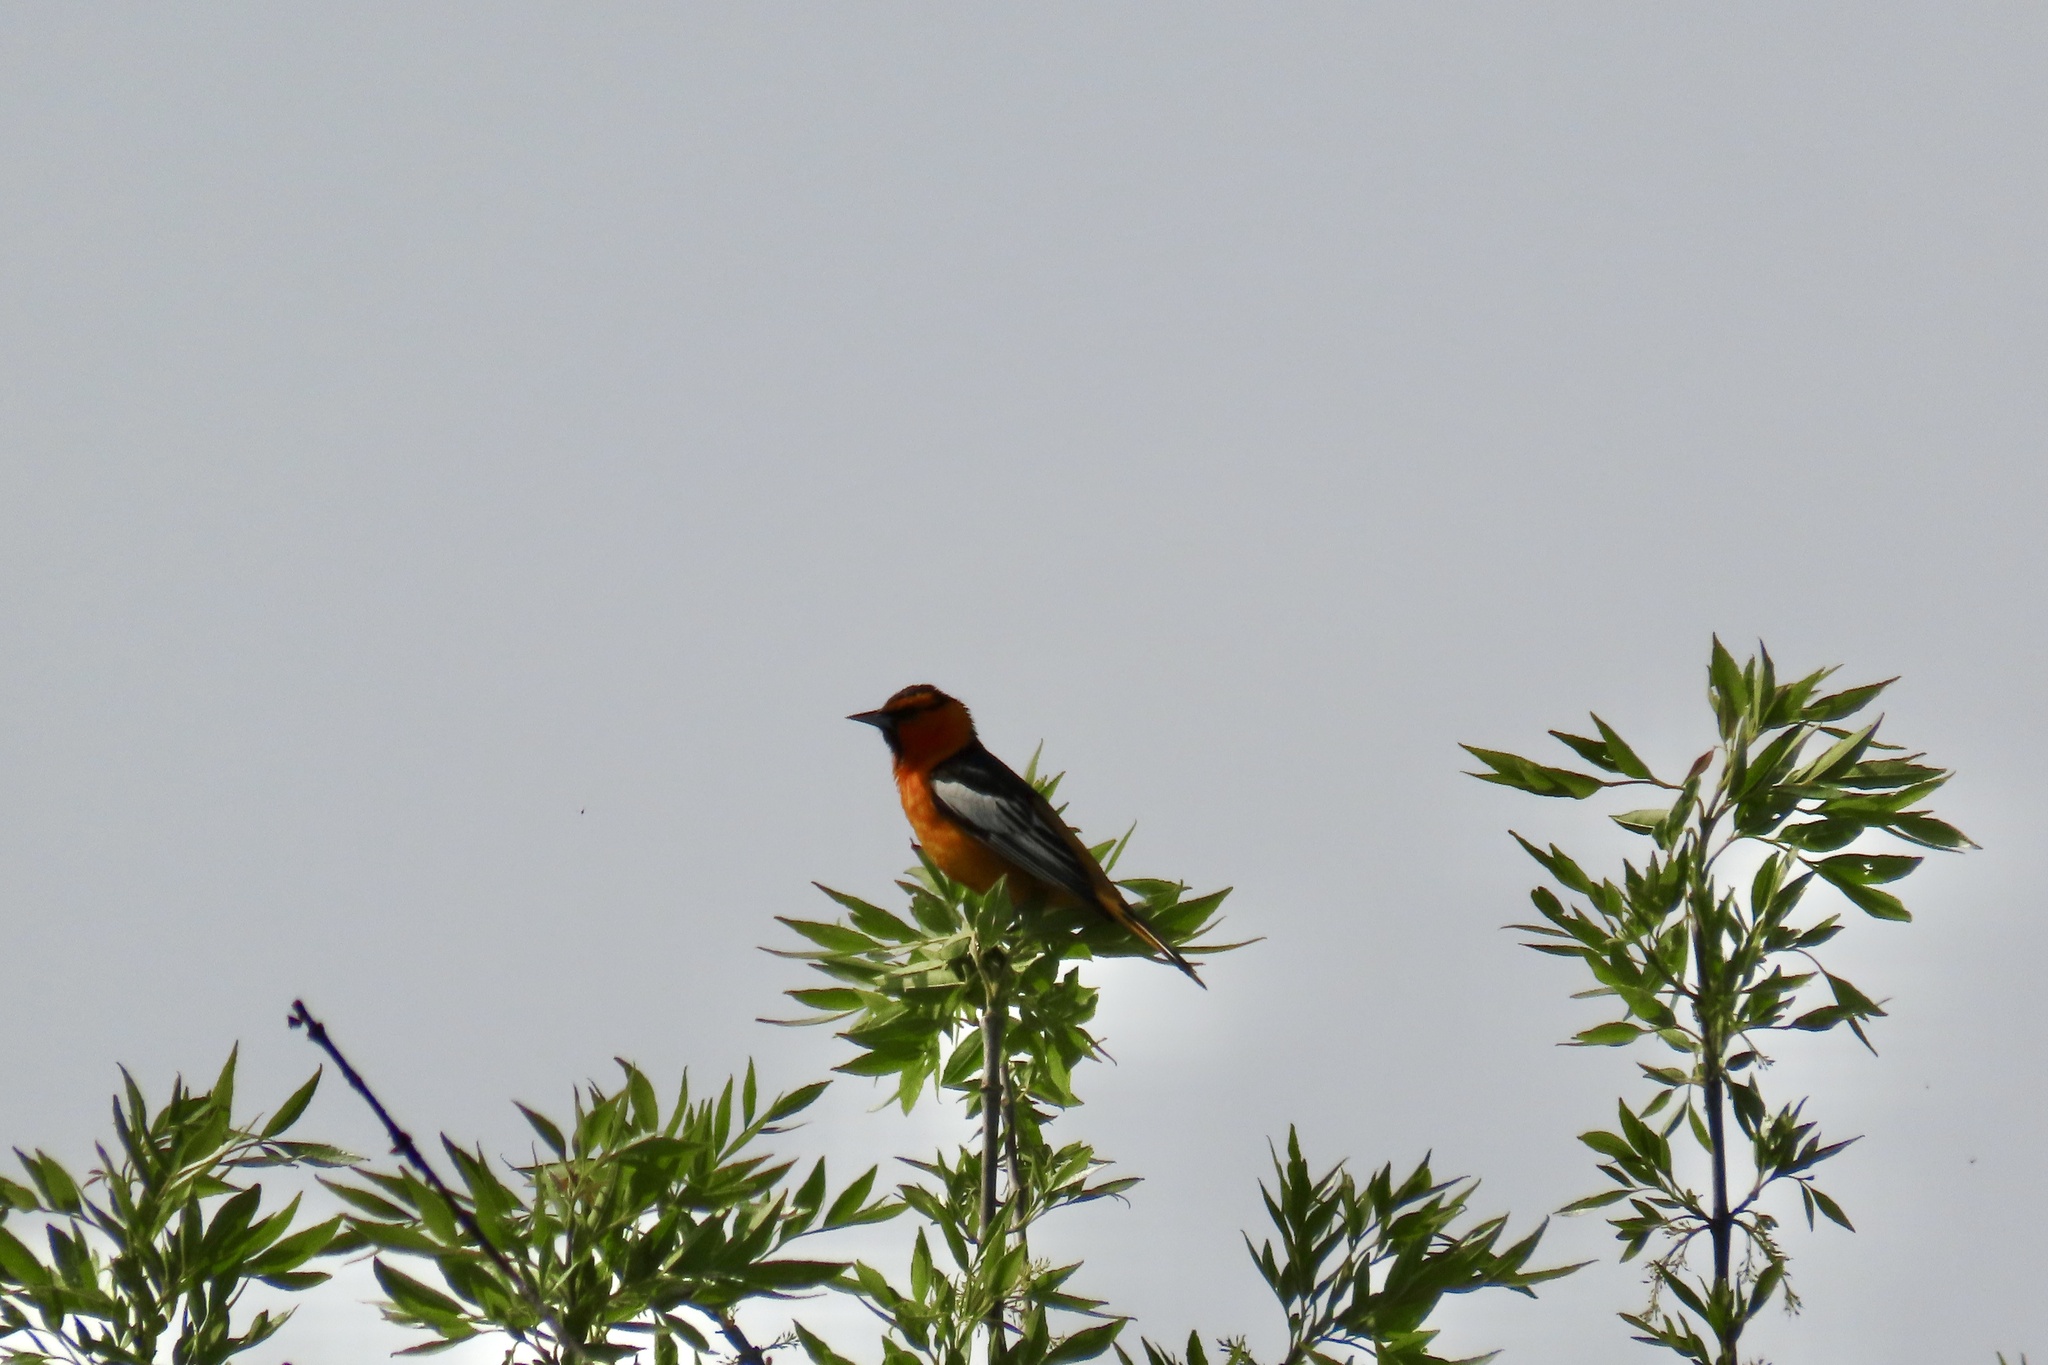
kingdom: Animalia
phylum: Chordata
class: Aves
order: Passeriformes
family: Icteridae
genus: Icterus
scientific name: Icterus bullockii
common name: Bullock's oriole
